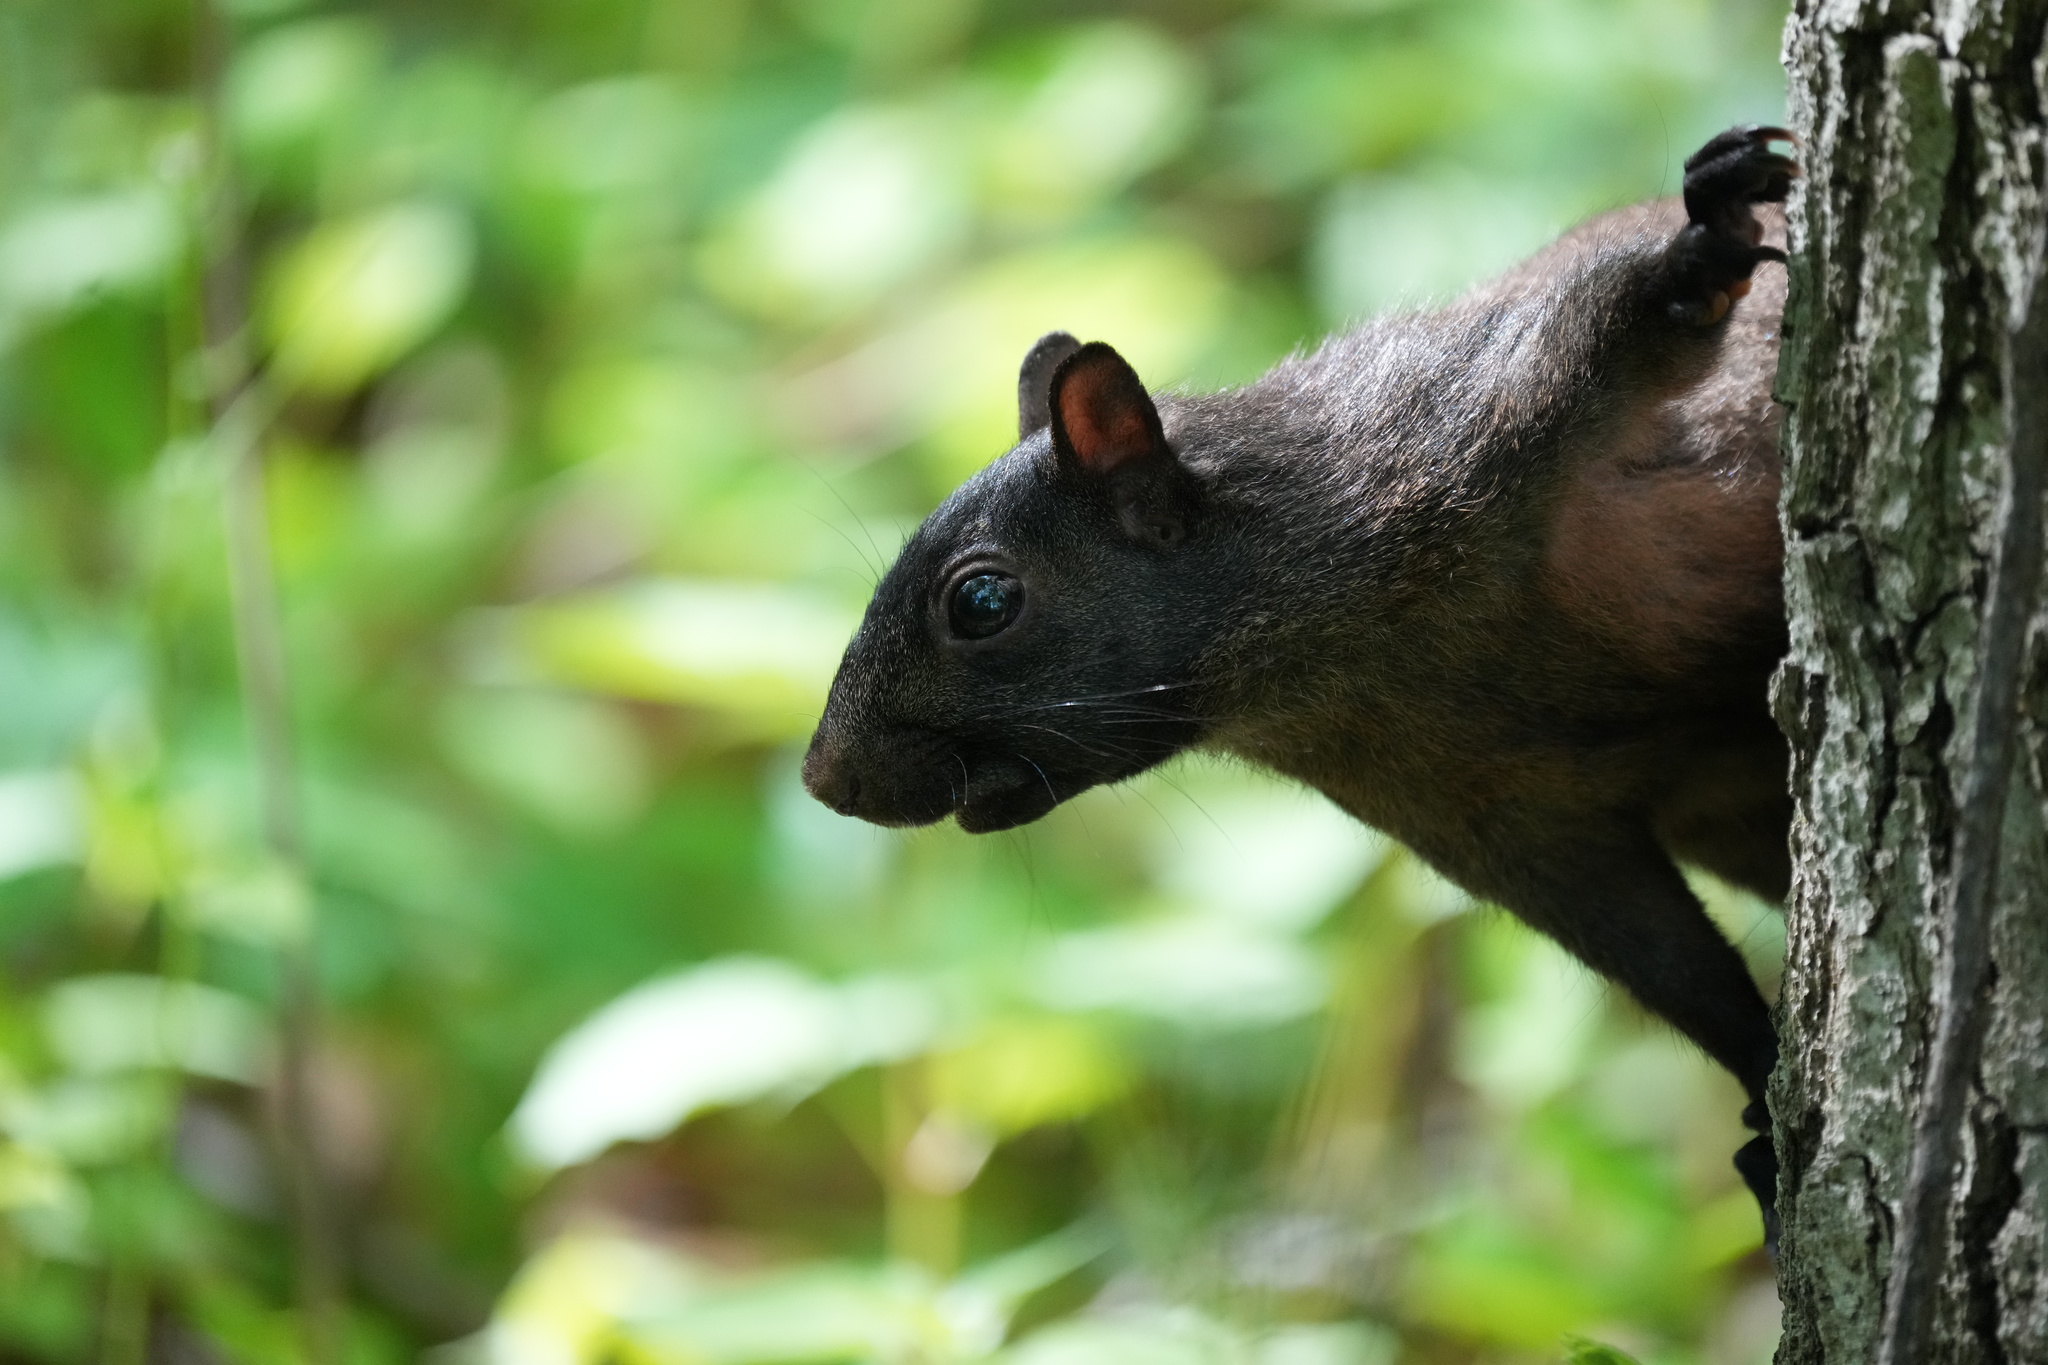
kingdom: Animalia
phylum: Chordata
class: Mammalia
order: Rodentia
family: Sciuridae
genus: Sciurus
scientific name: Sciurus carolinensis
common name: Eastern gray squirrel
